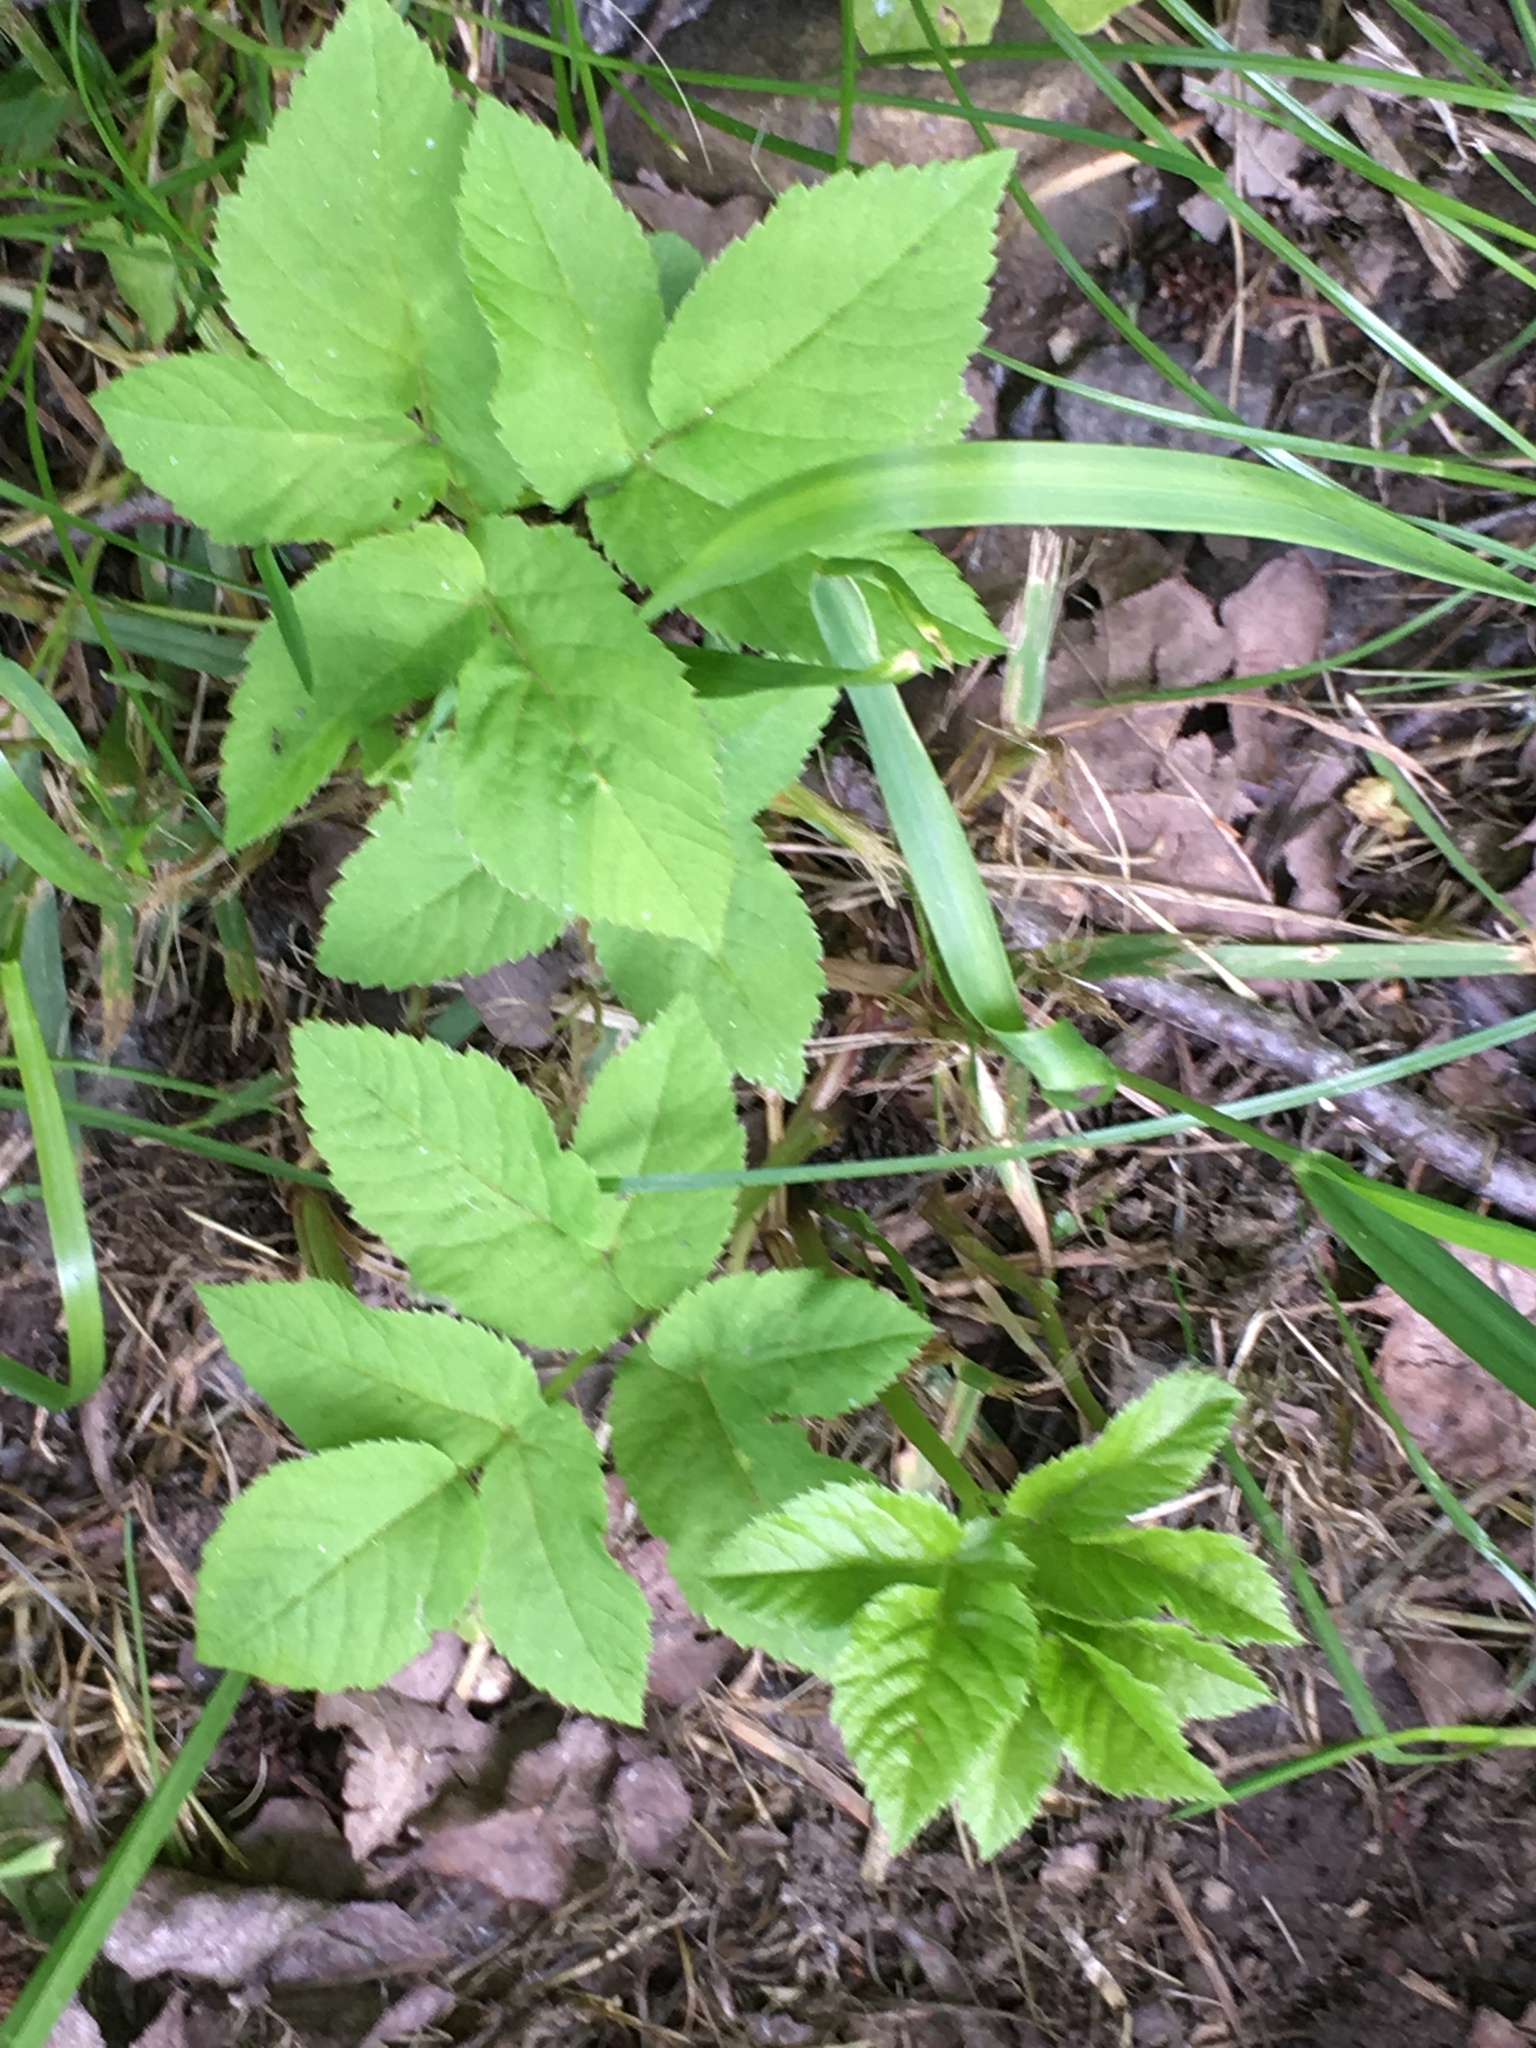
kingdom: Plantae
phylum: Tracheophyta
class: Magnoliopsida
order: Apiales
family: Apiaceae
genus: Aegopodium
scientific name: Aegopodium podagraria
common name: Ground-elder
